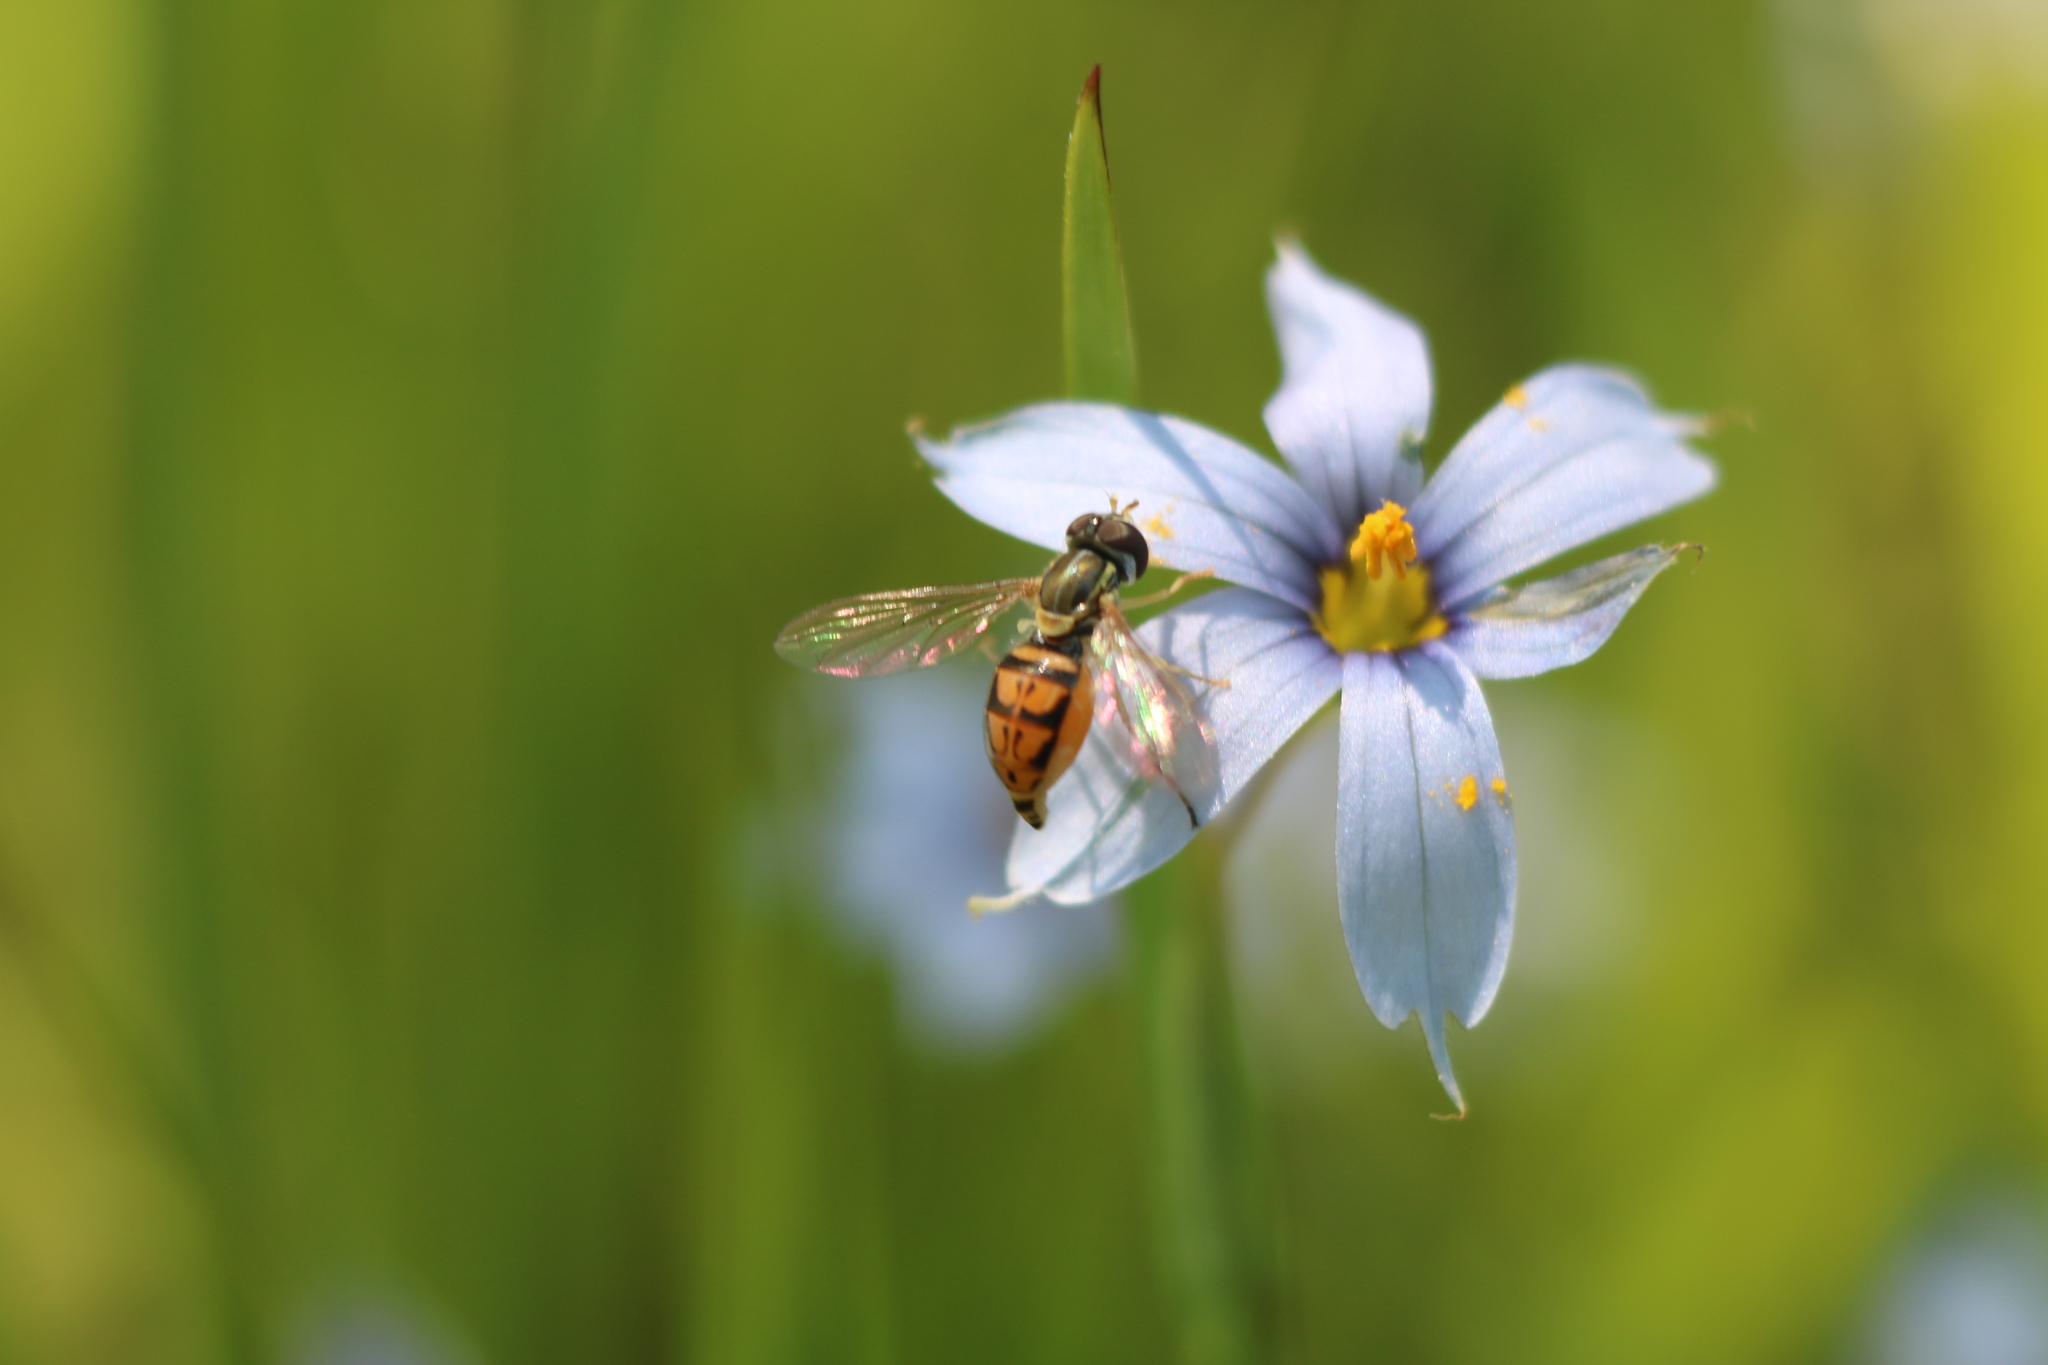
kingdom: Animalia
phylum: Arthropoda
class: Insecta
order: Diptera
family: Syrphidae
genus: Toxomerus
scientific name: Toxomerus marginatus
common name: Syrphid fly
